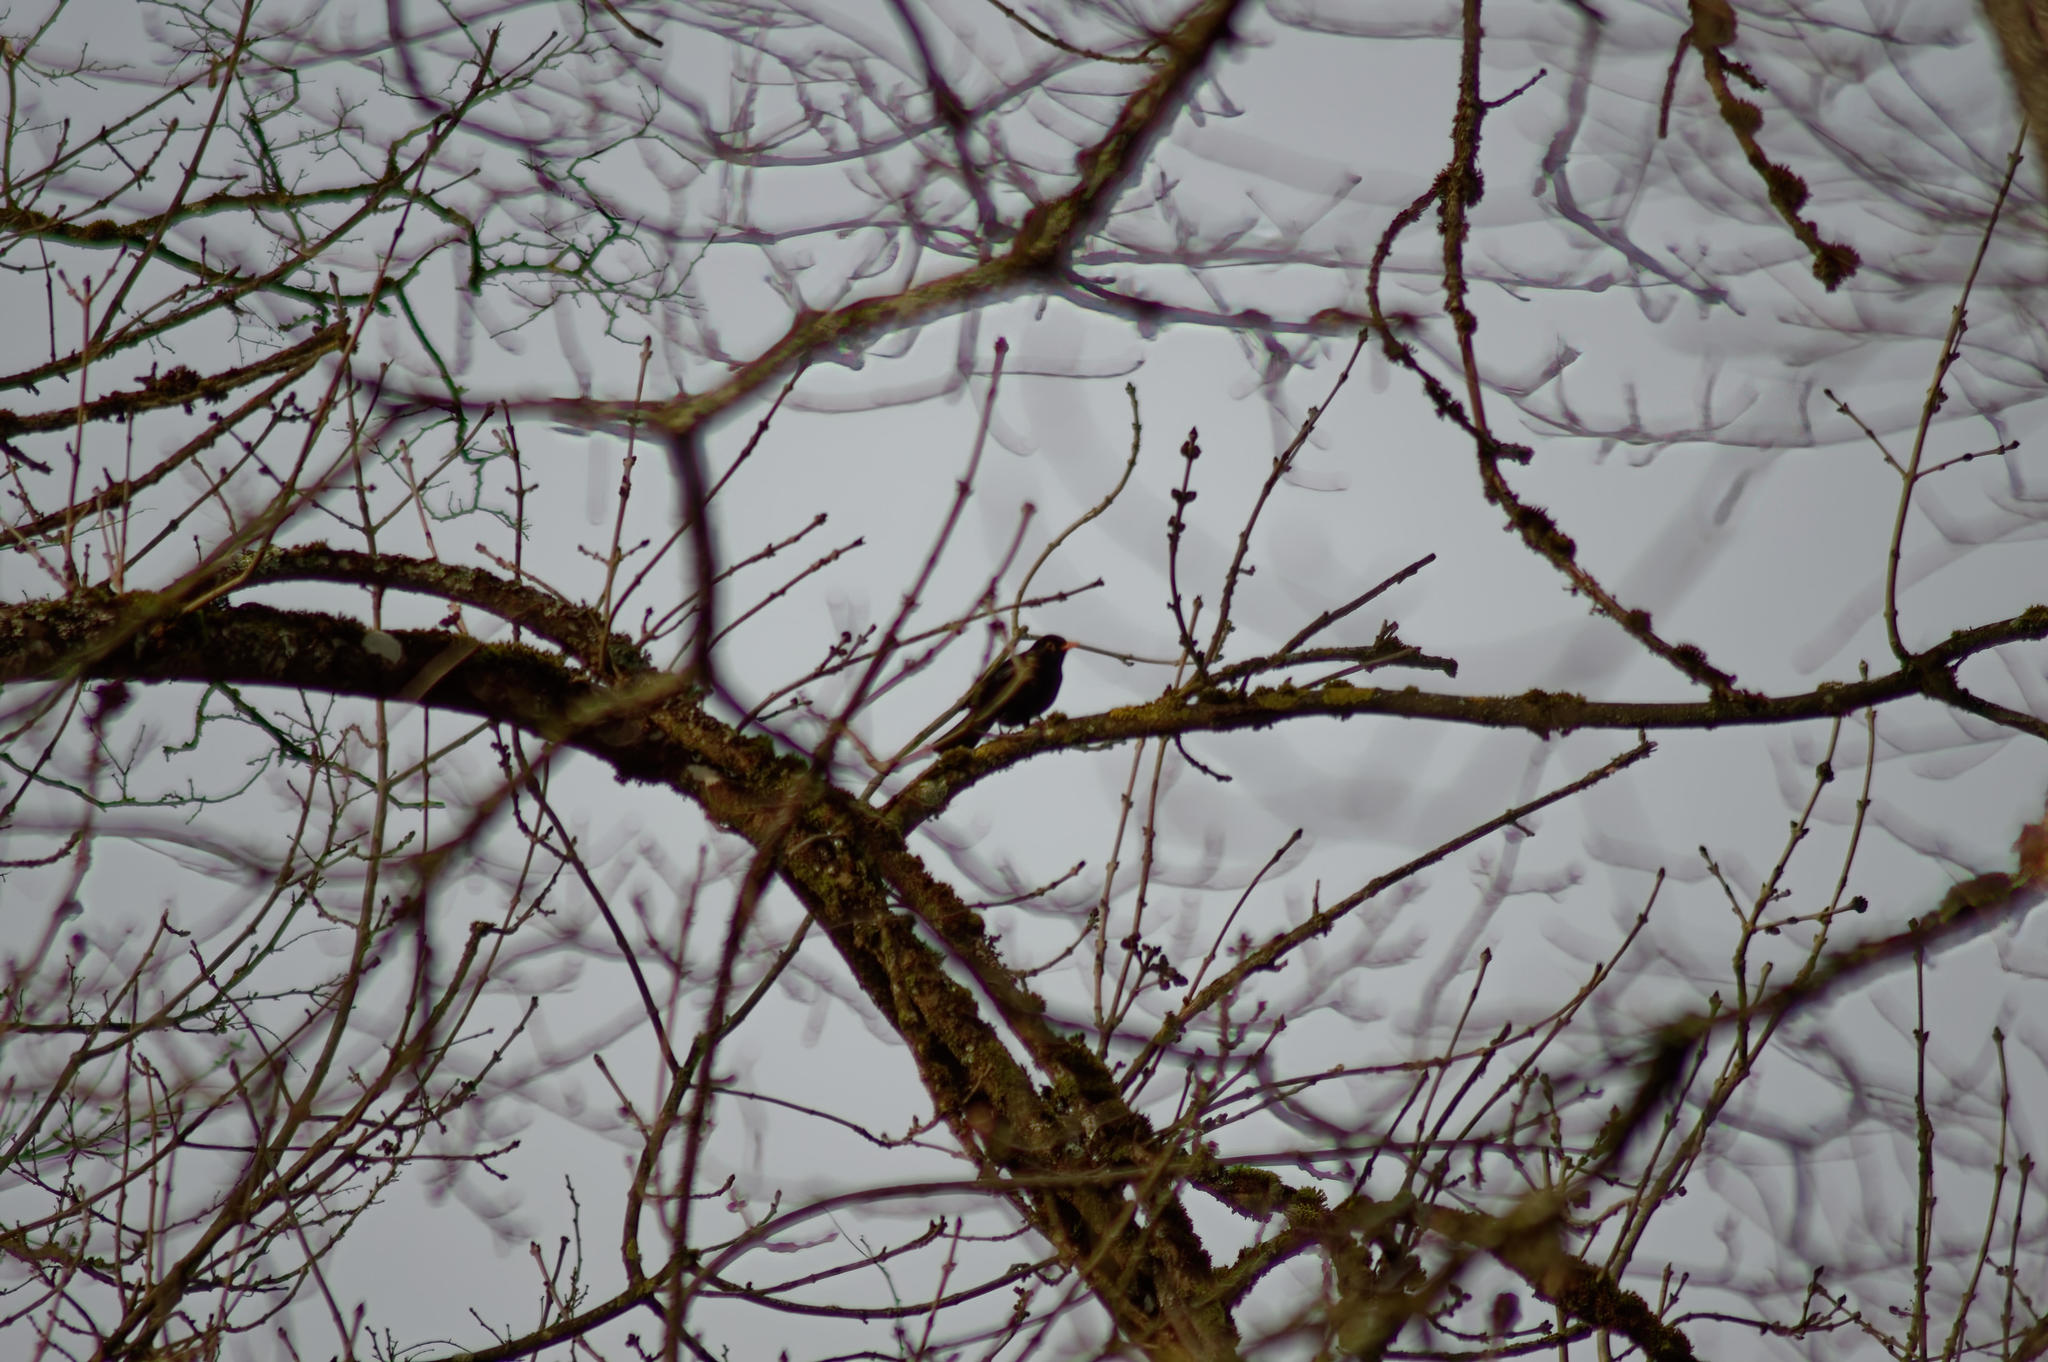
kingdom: Animalia
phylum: Chordata
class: Aves
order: Passeriformes
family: Turdidae
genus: Turdus
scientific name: Turdus merula
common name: Common blackbird
